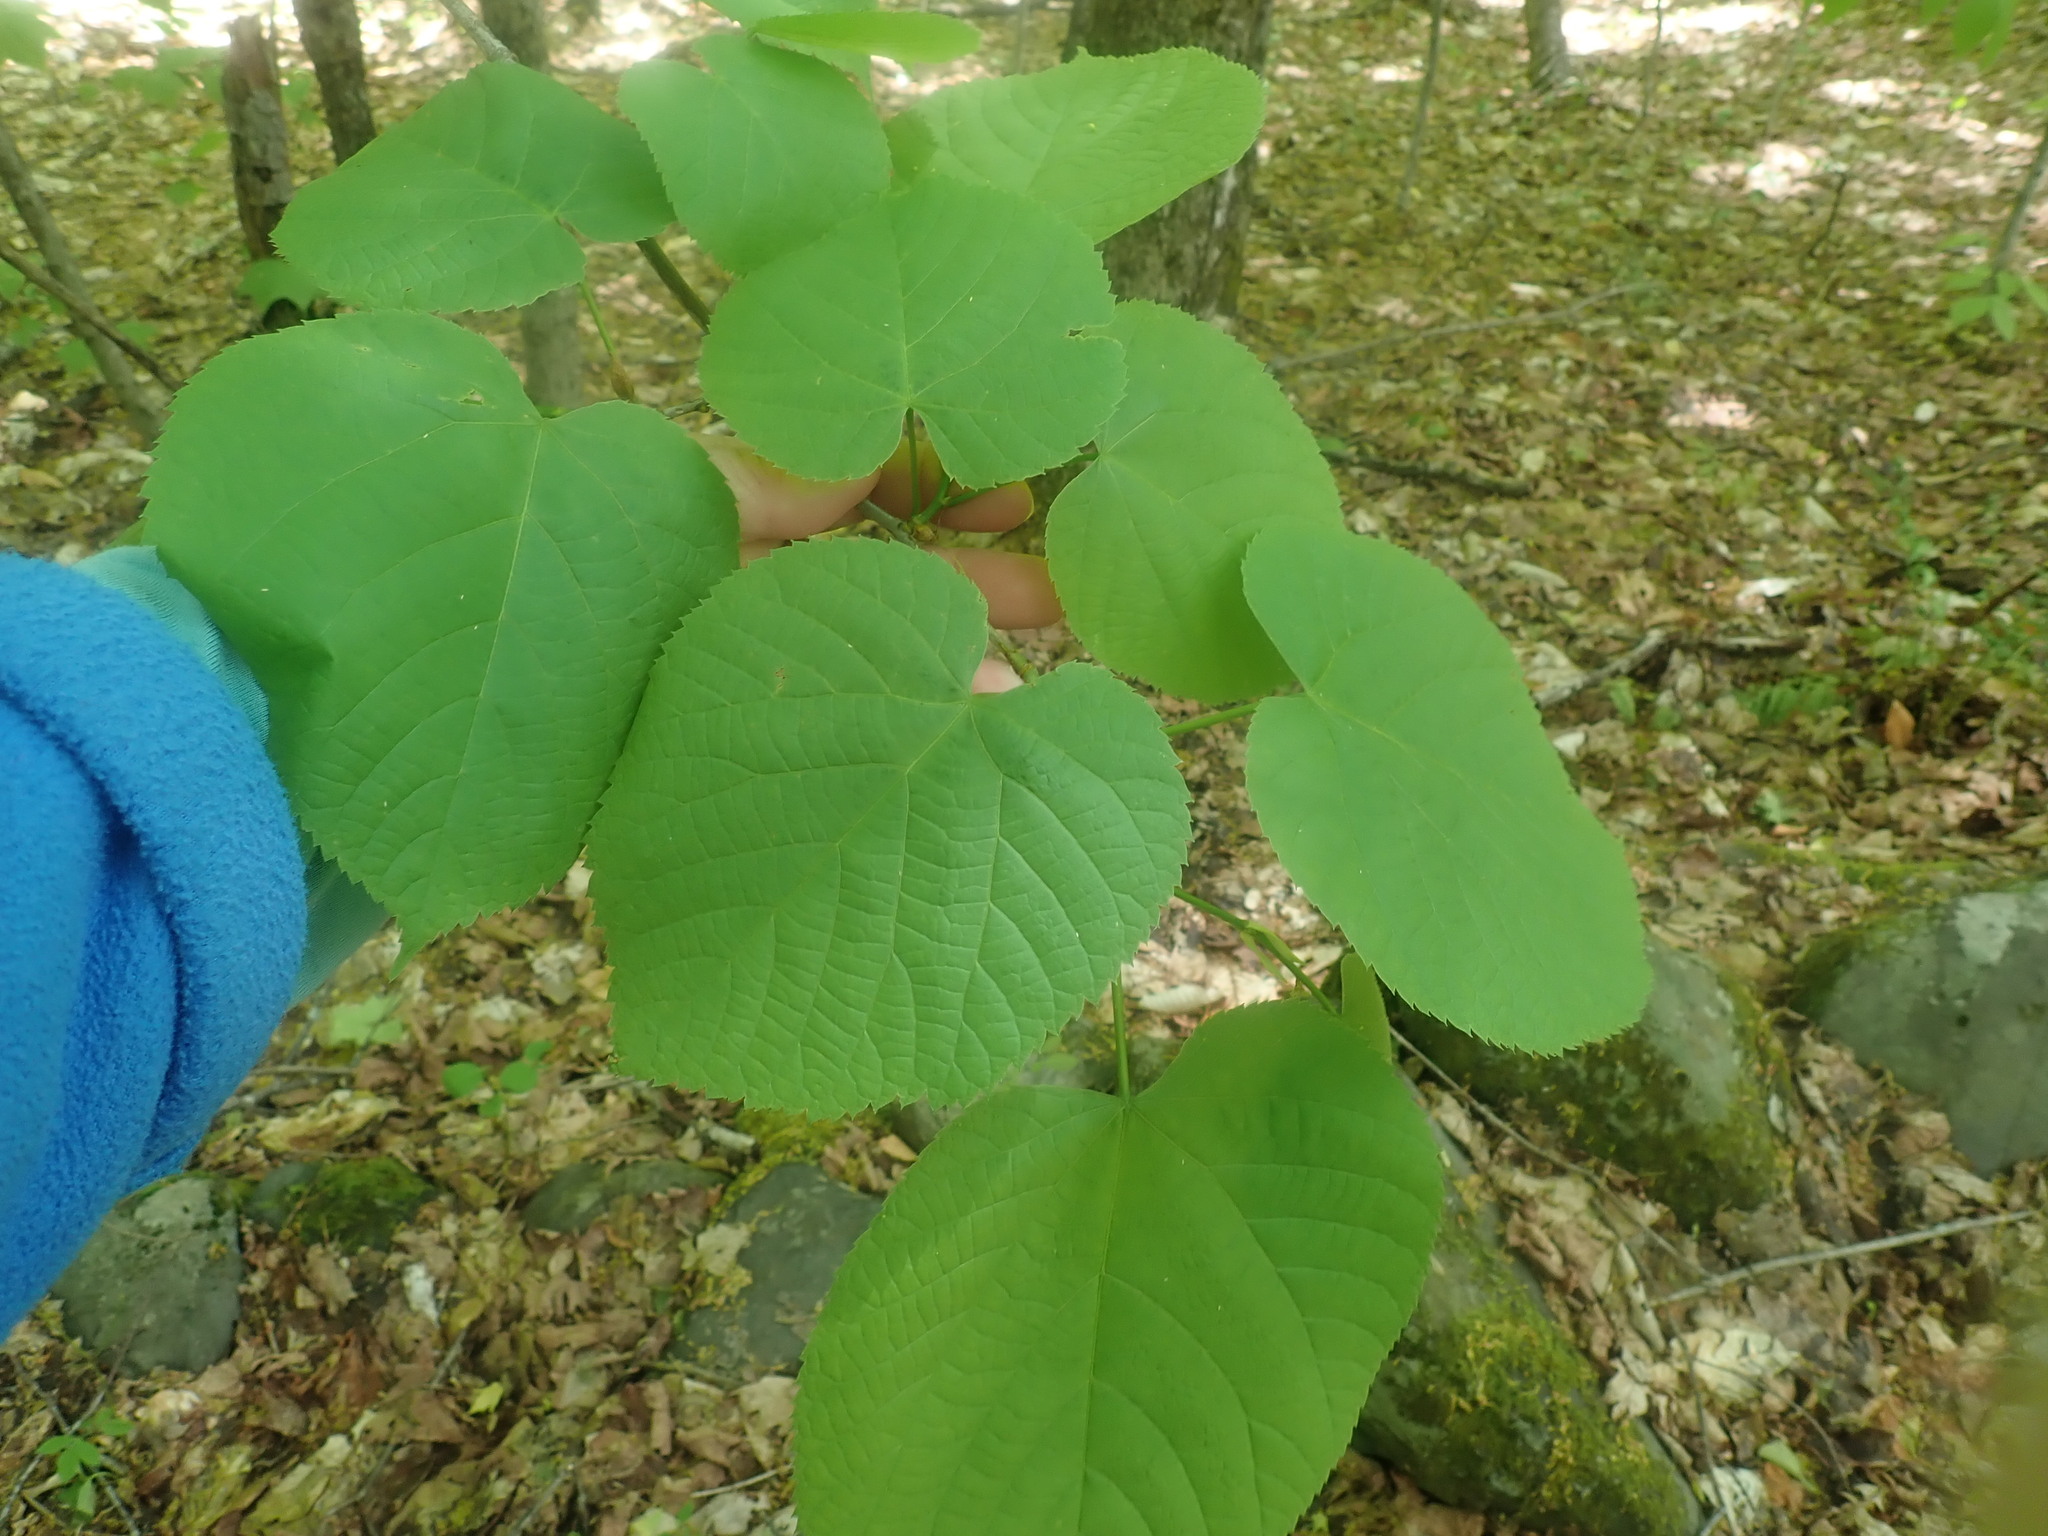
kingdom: Plantae
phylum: Tracheophyta
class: Magnoliopsida
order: Malvales
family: Malvaceae
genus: Tilia
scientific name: Tilia americana
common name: Basswood
